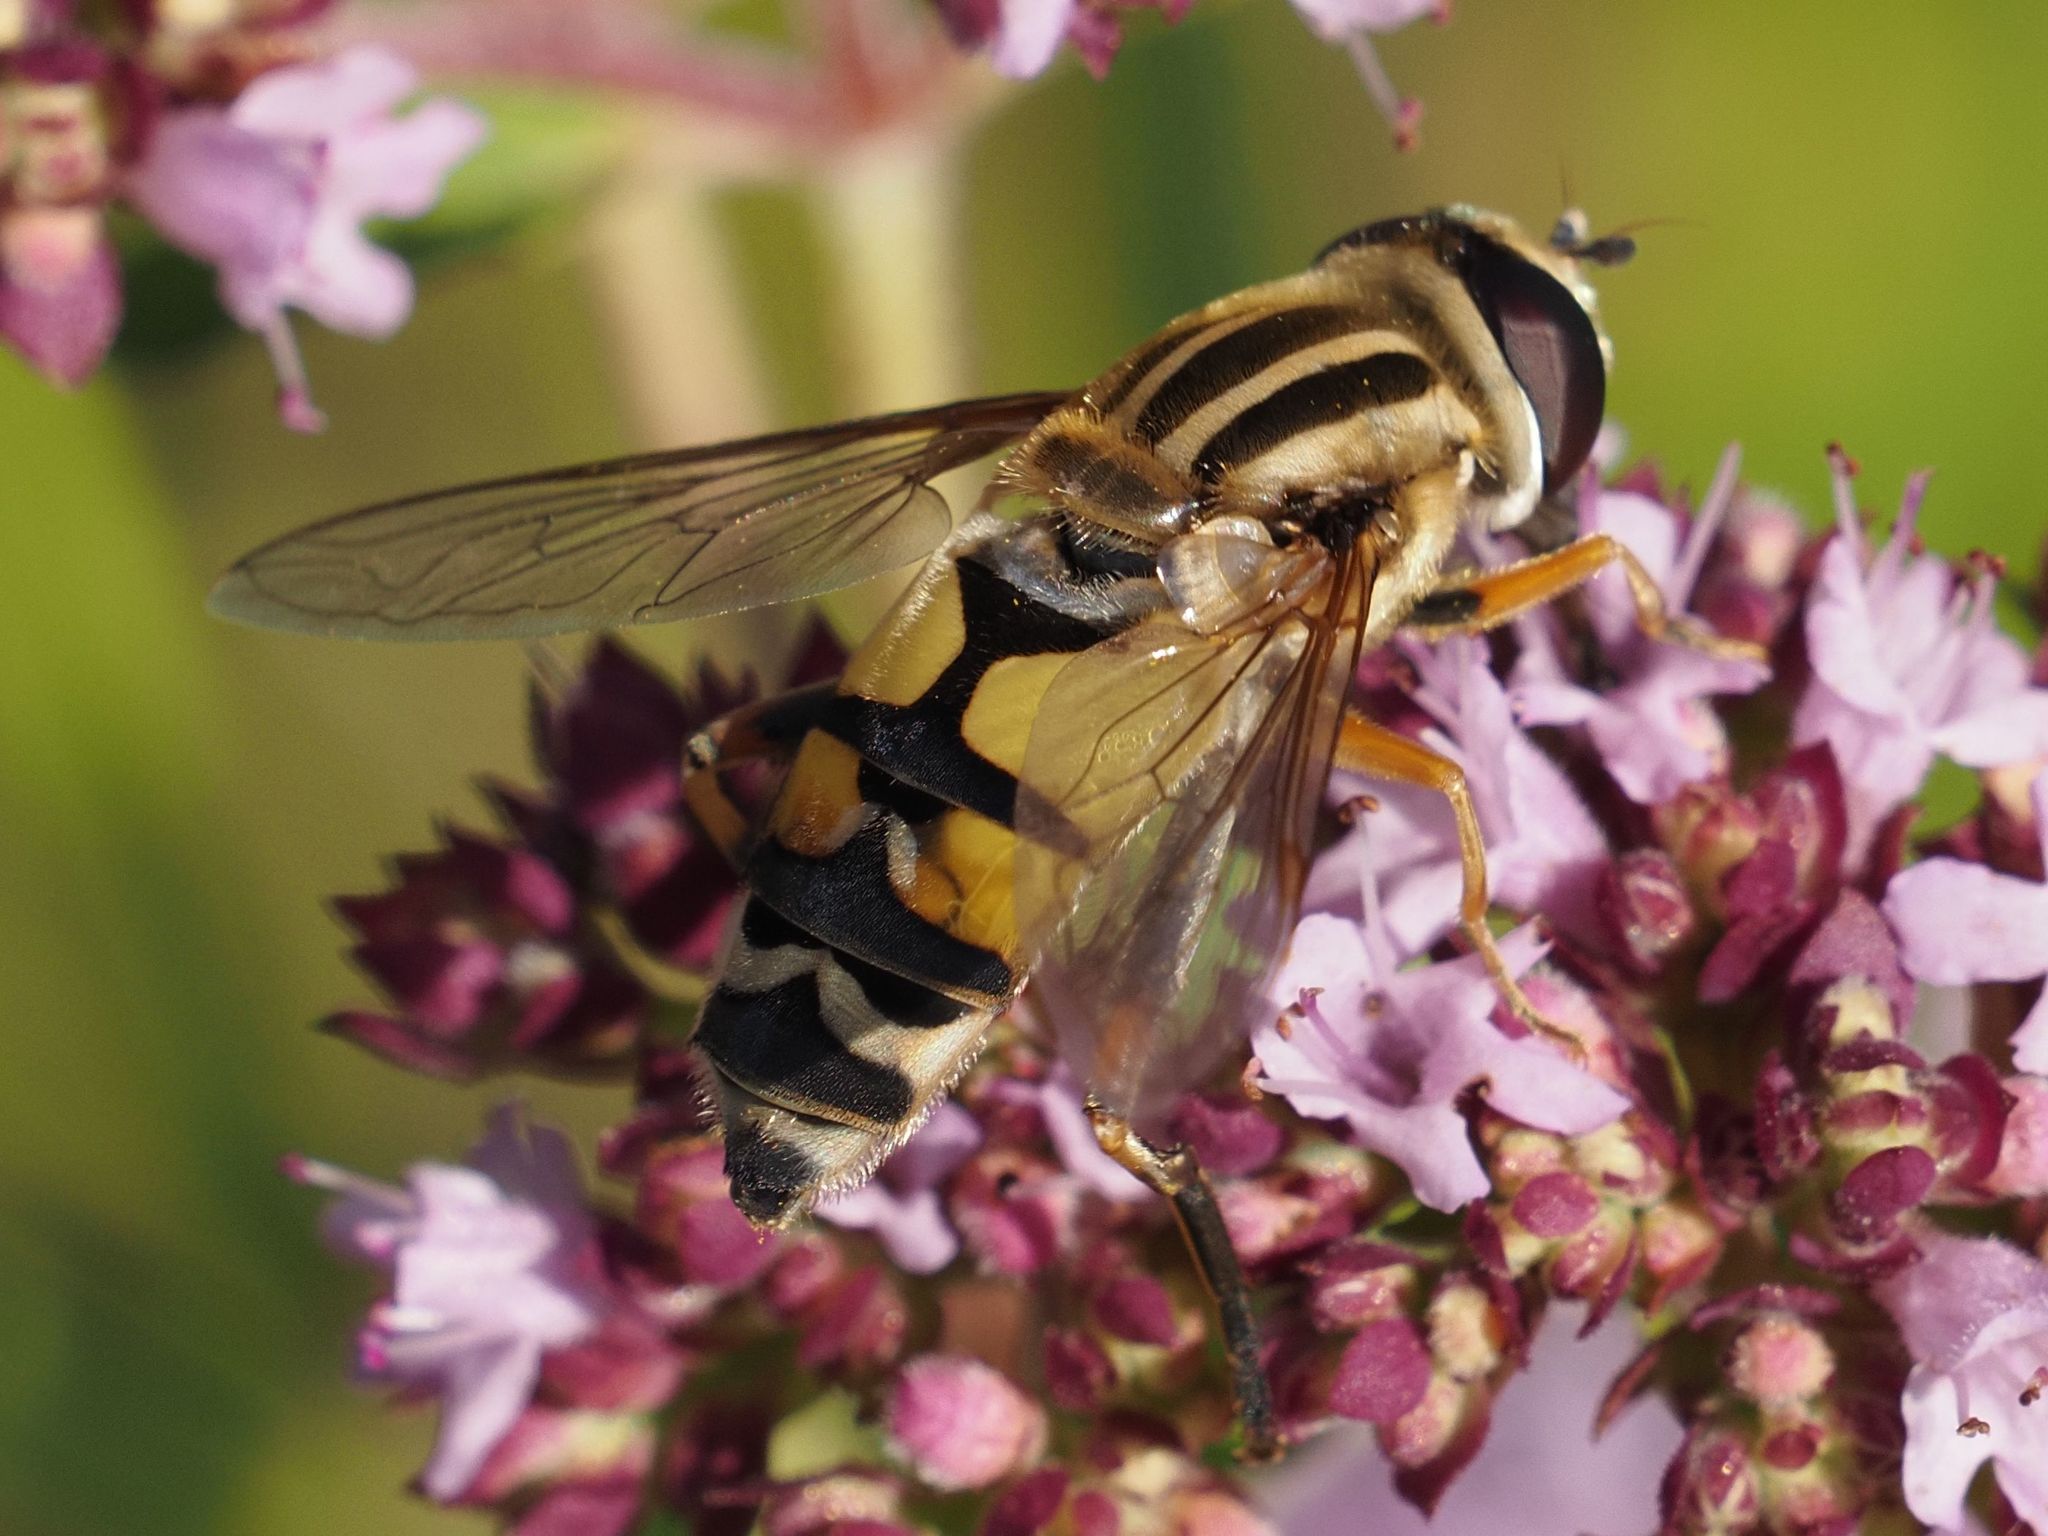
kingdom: Animalia
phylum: Arthropoda
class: Insecta
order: Diptera
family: Syrphidae
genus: Helophilus
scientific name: Helophilus trivittatus
